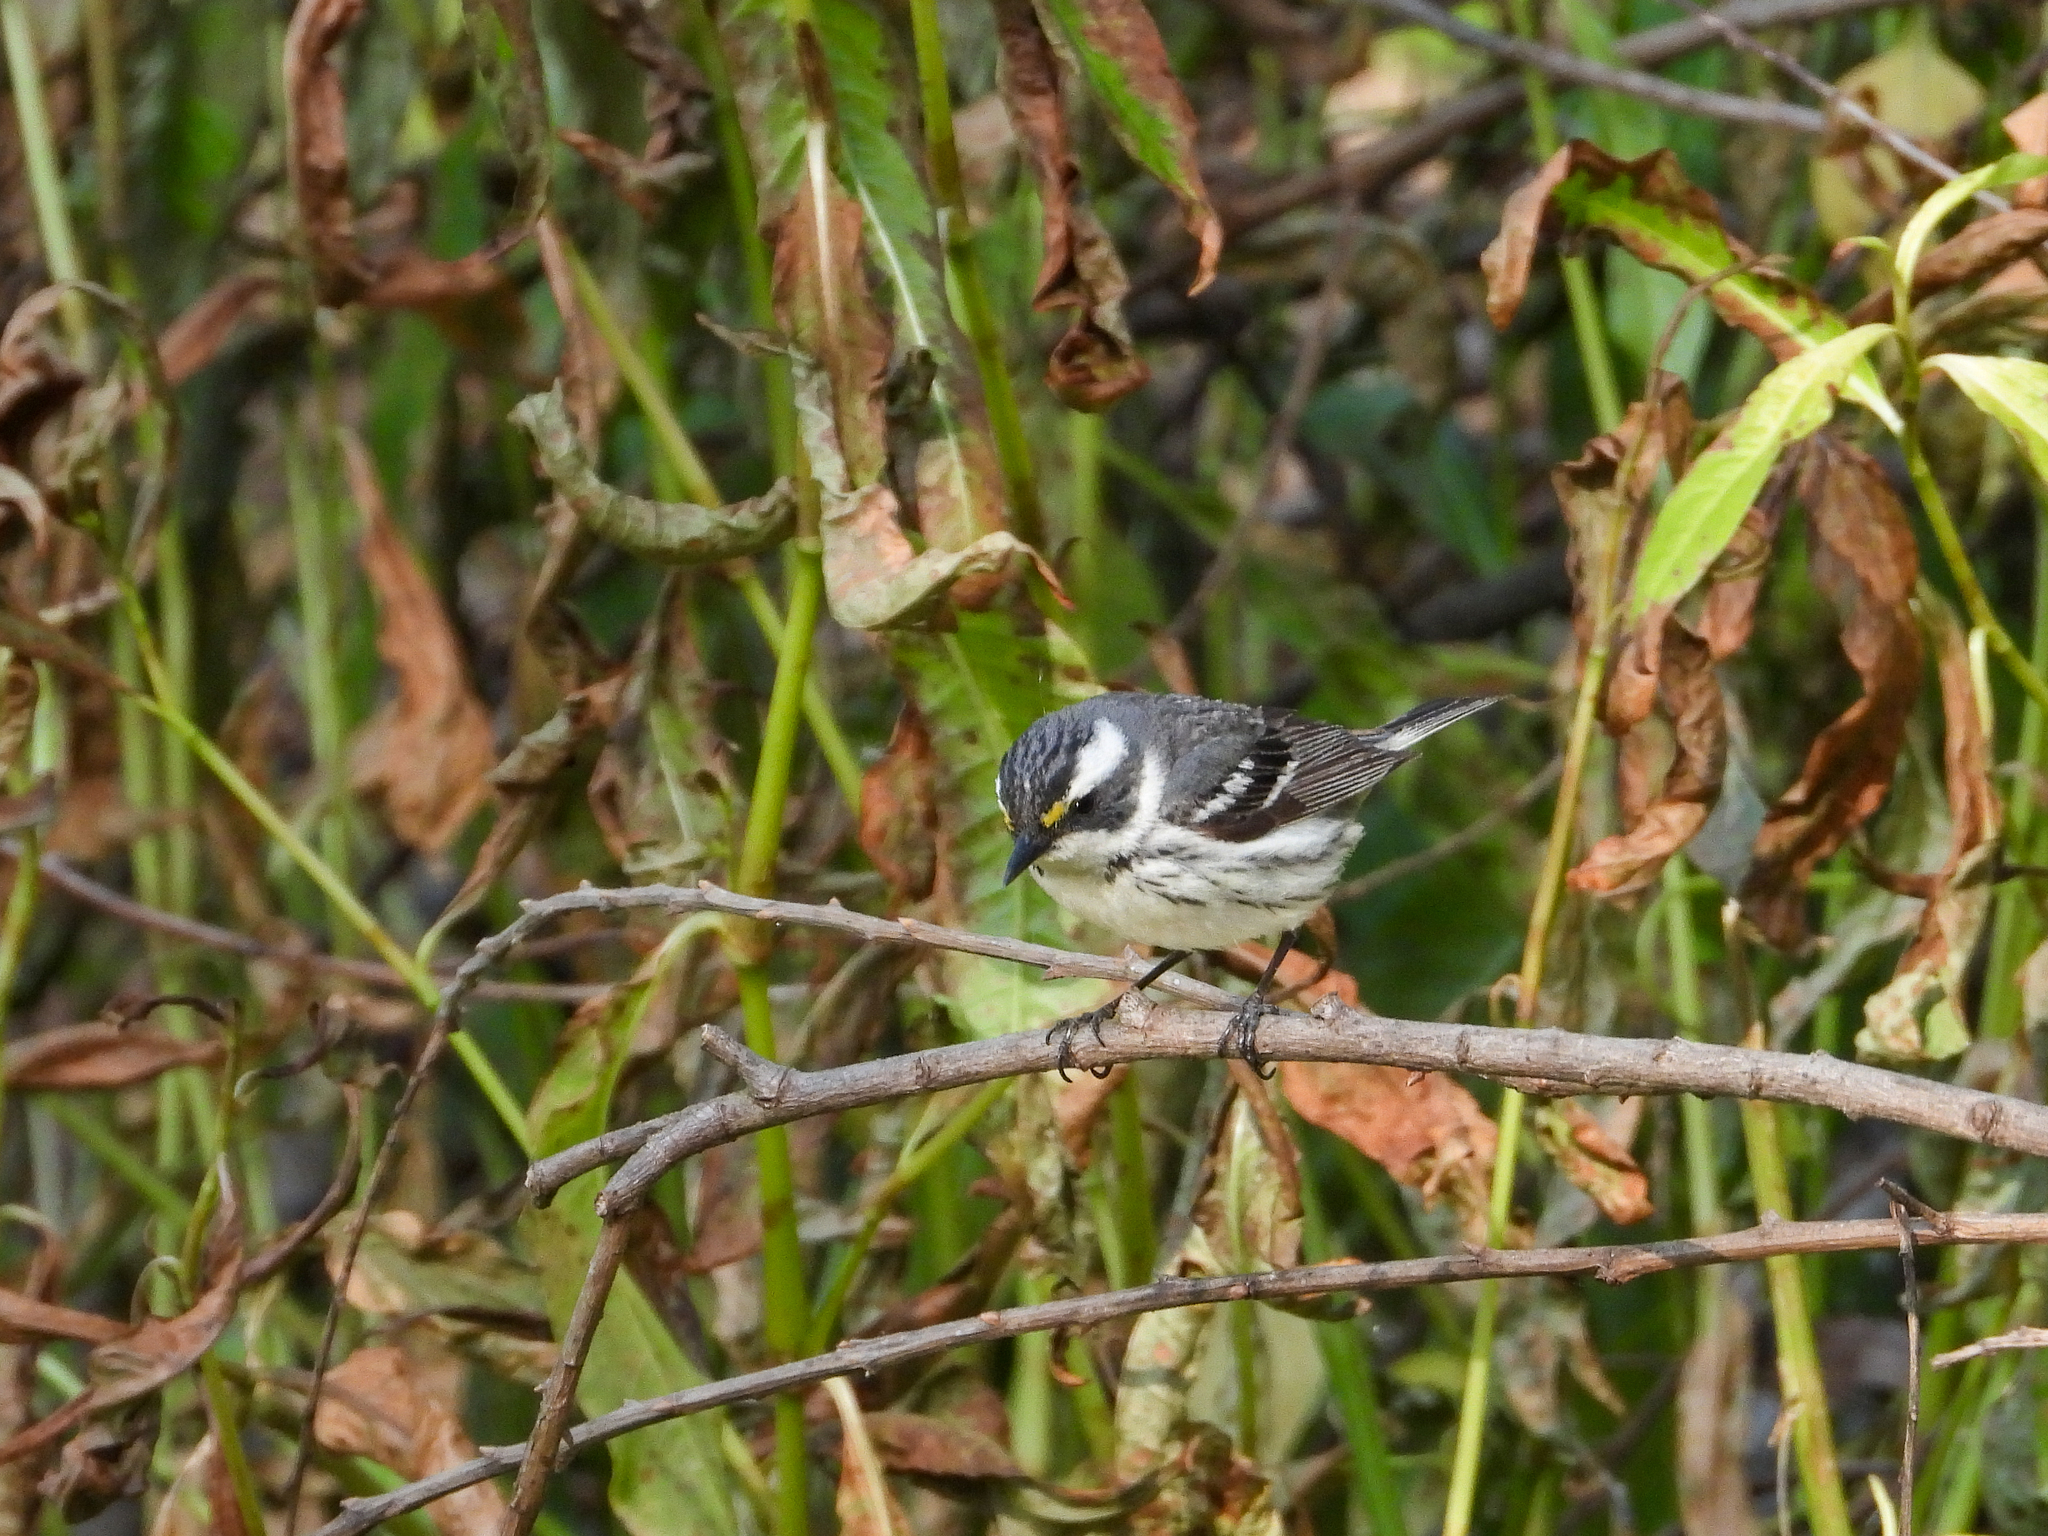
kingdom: Animalia
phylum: Chordata
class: Aves
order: Passeriformes
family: Parulidae
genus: Setophaga
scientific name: Setophaga nigrescens
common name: Black-throated gray warbler
